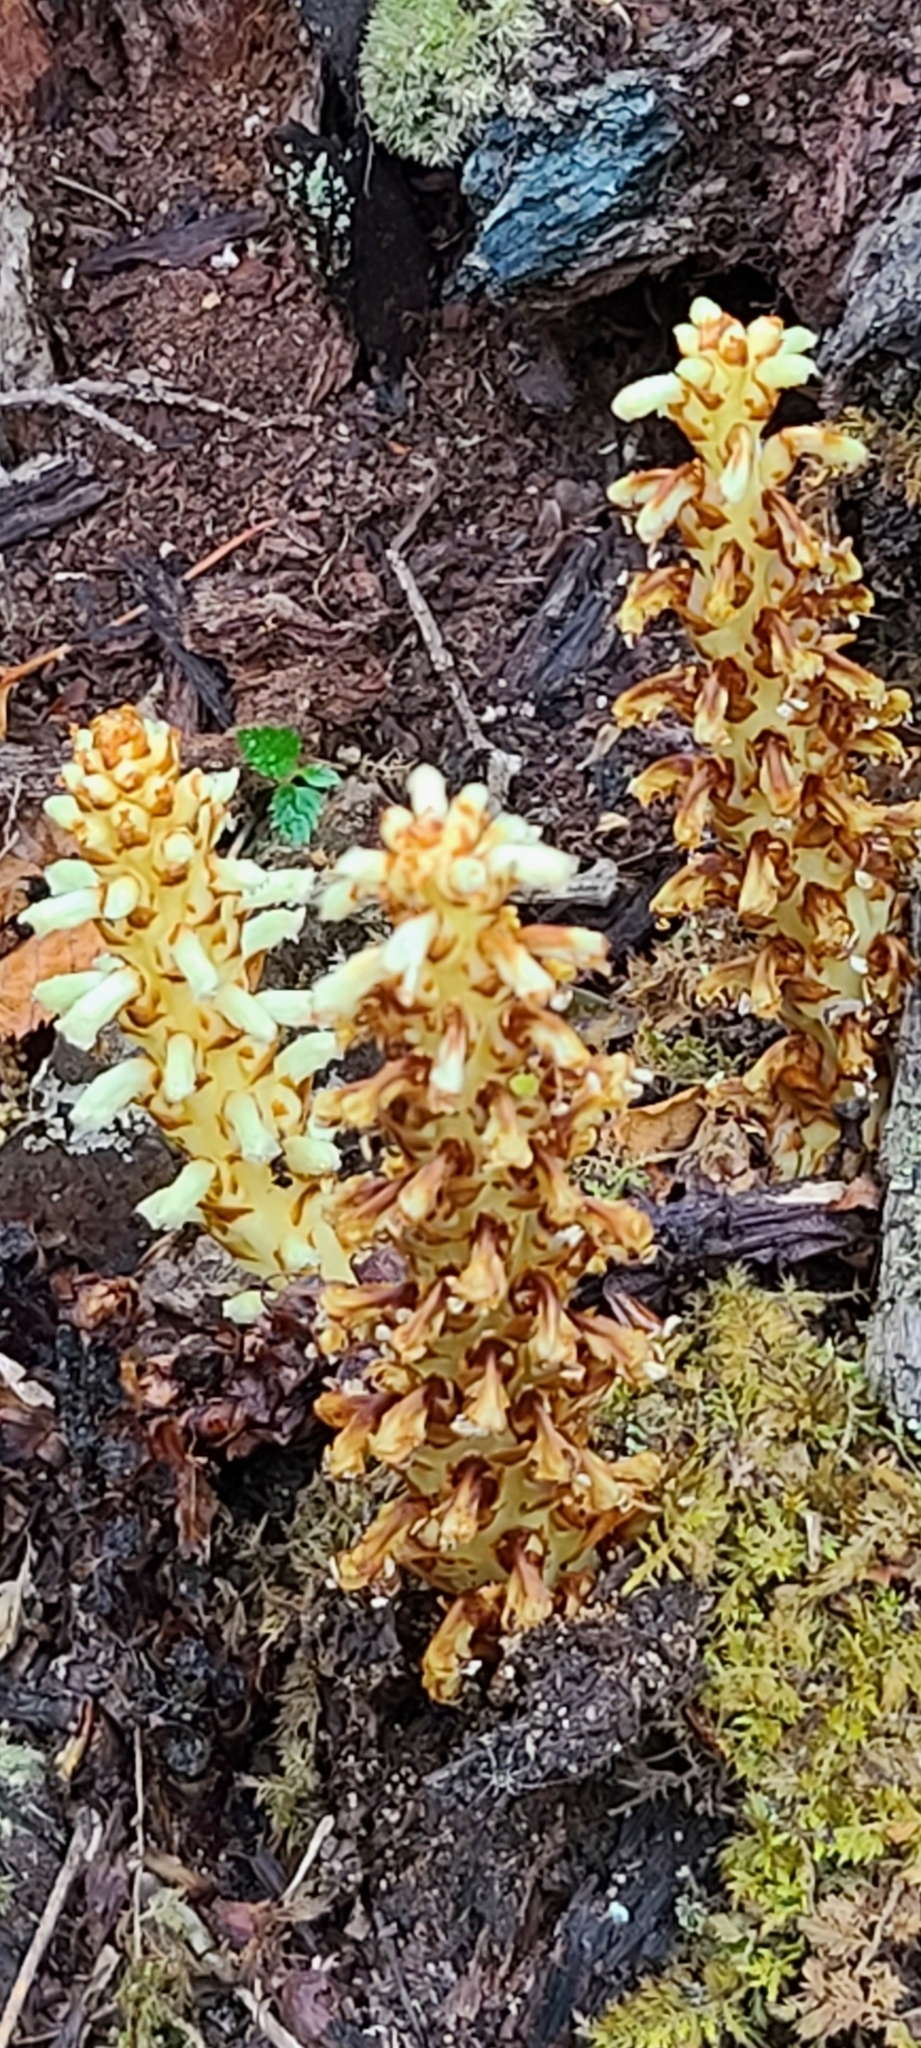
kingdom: Plantae
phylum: Tracheophyta
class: Magnoliopsida
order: Lamiales
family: Orobanchaceae
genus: Conopholis
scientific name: Conopholis americana
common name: American cancer-root
